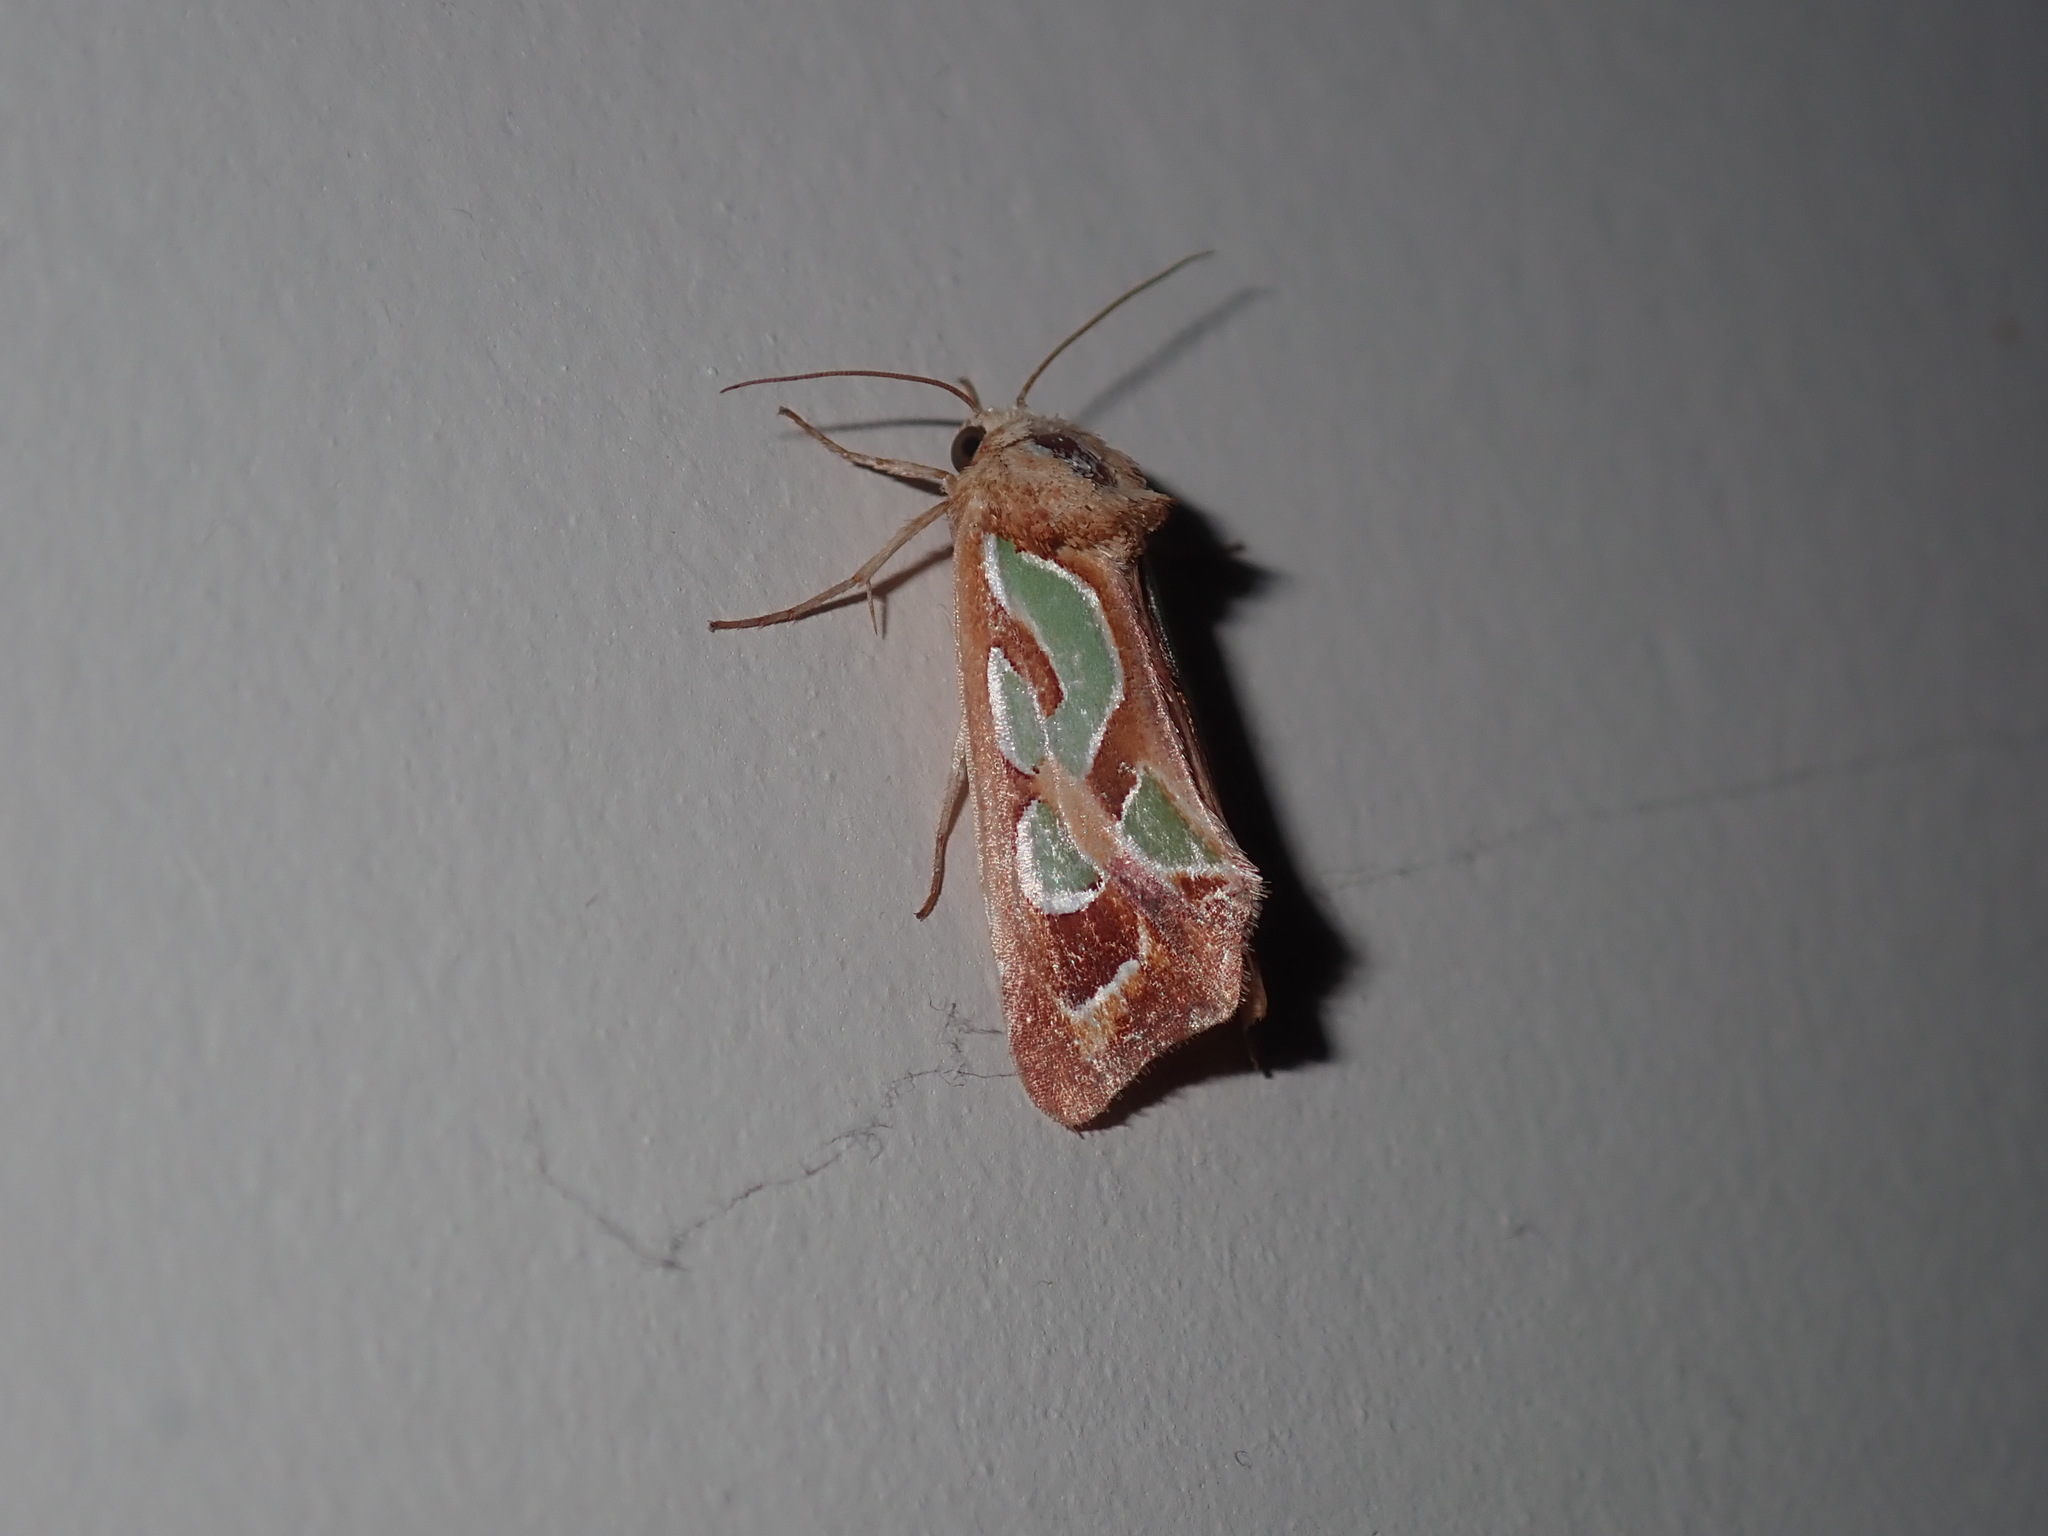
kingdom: Animalia
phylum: Arthropoda
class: Insecta
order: Lepidoptera
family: Noctuidae
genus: Cosmodes
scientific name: Cosmodes elegans
